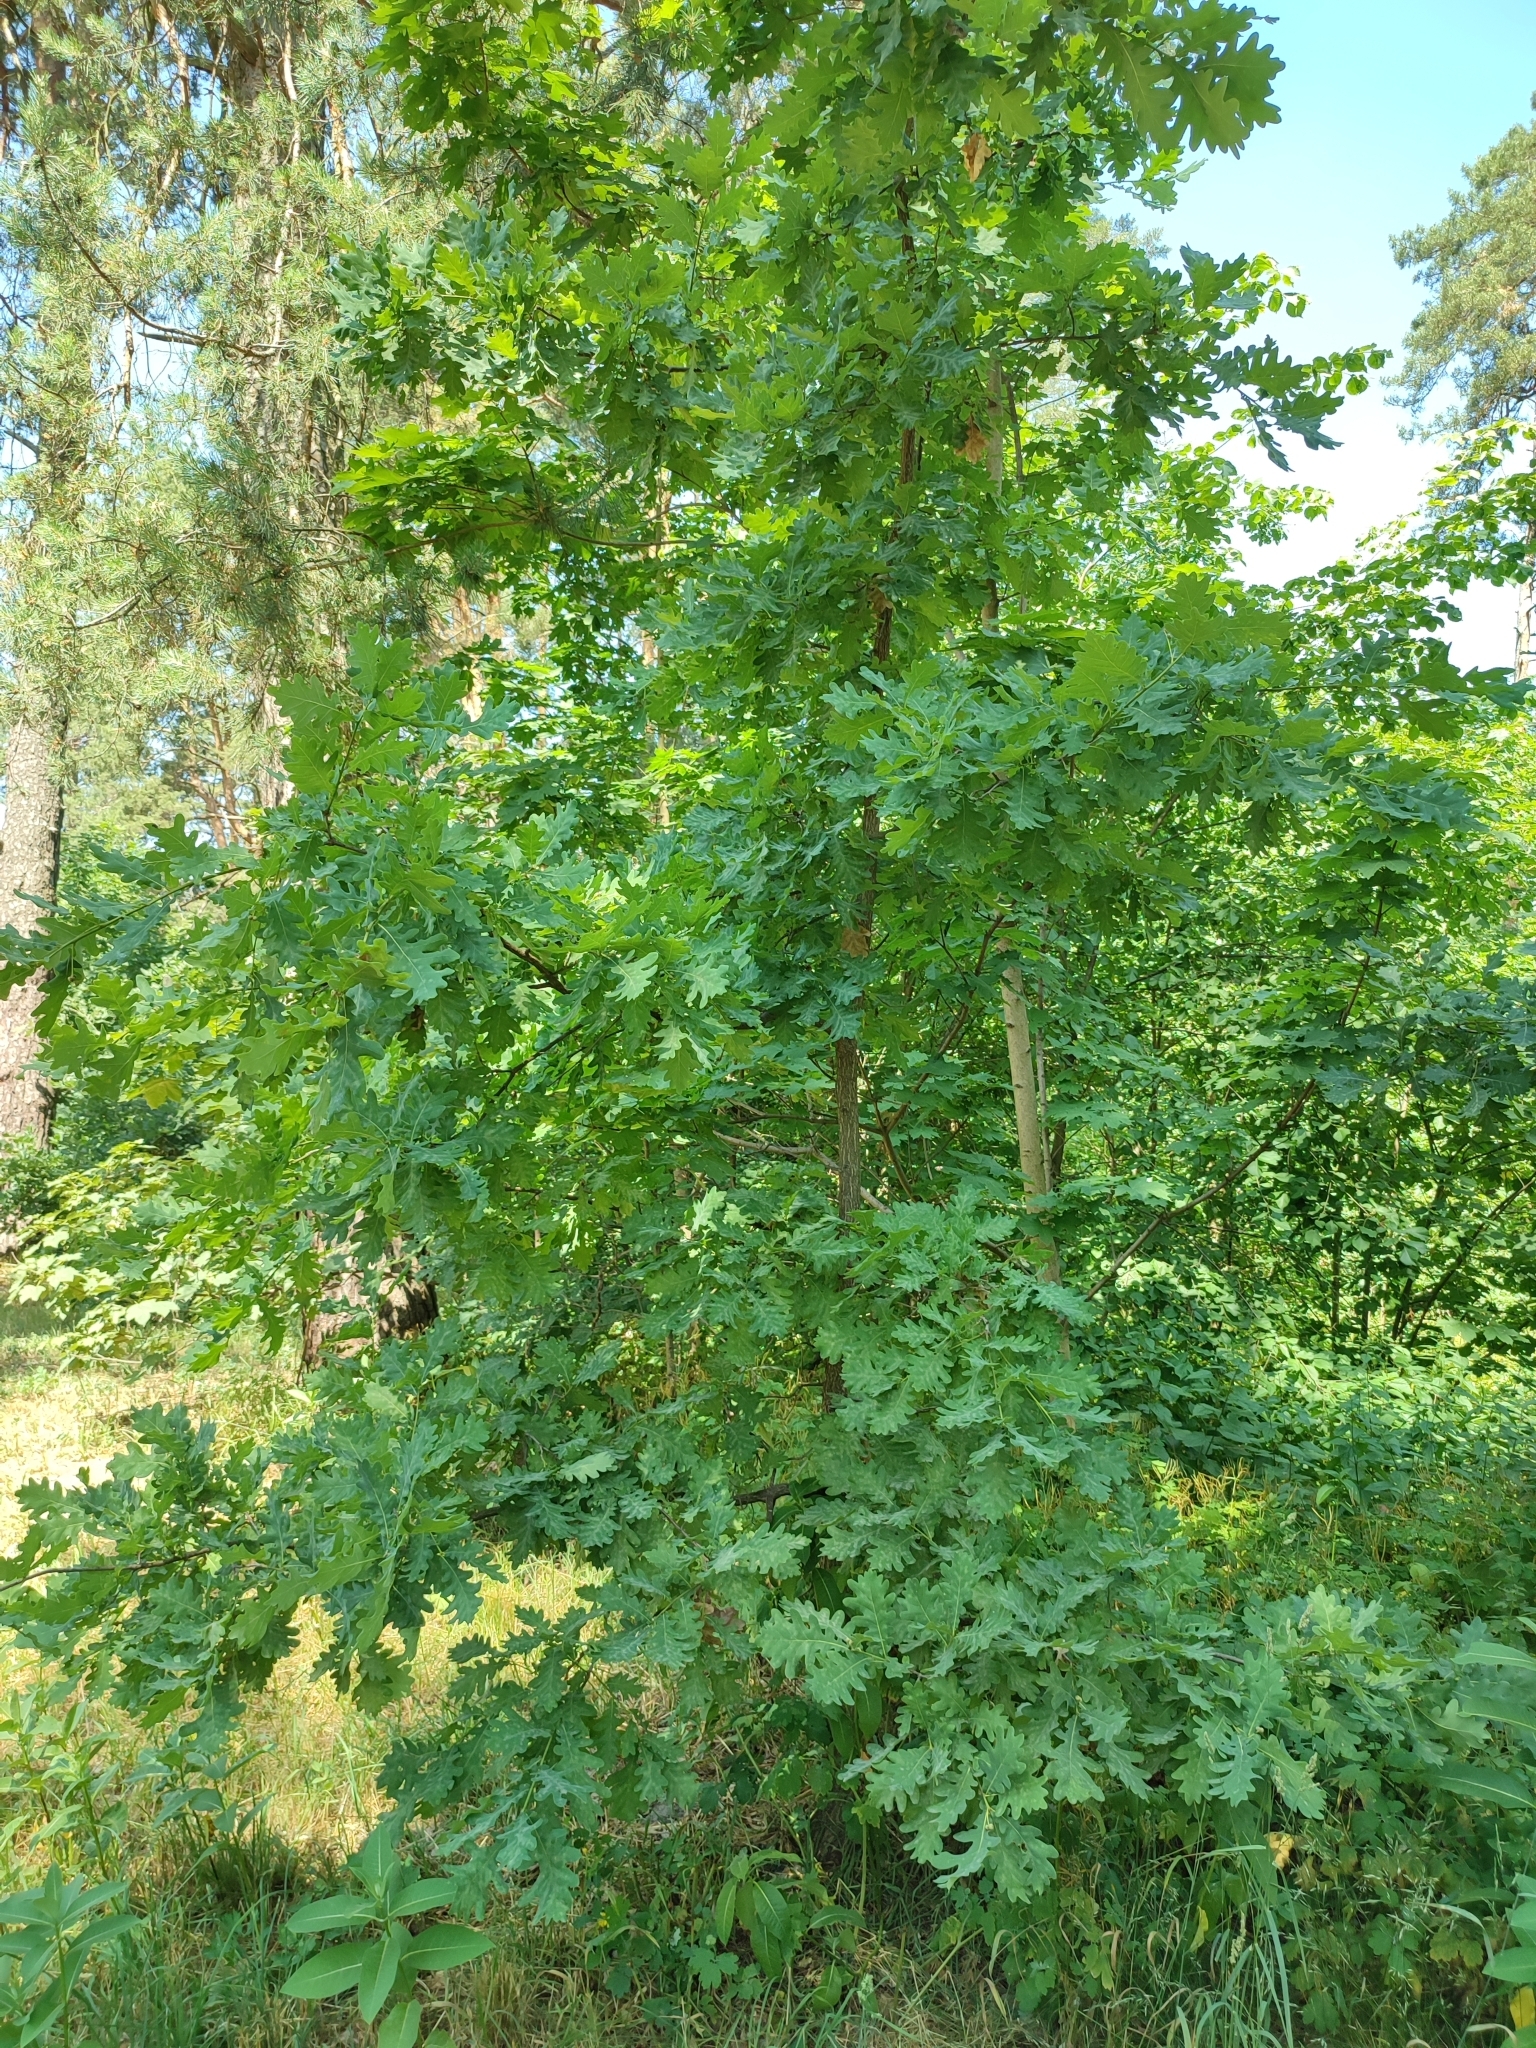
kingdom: Plantae
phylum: Tracheophyta
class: Magnoliopsida
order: Fagales
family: Fagaceae
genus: Quercus
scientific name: Quercus robur
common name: Pedunculate oak
